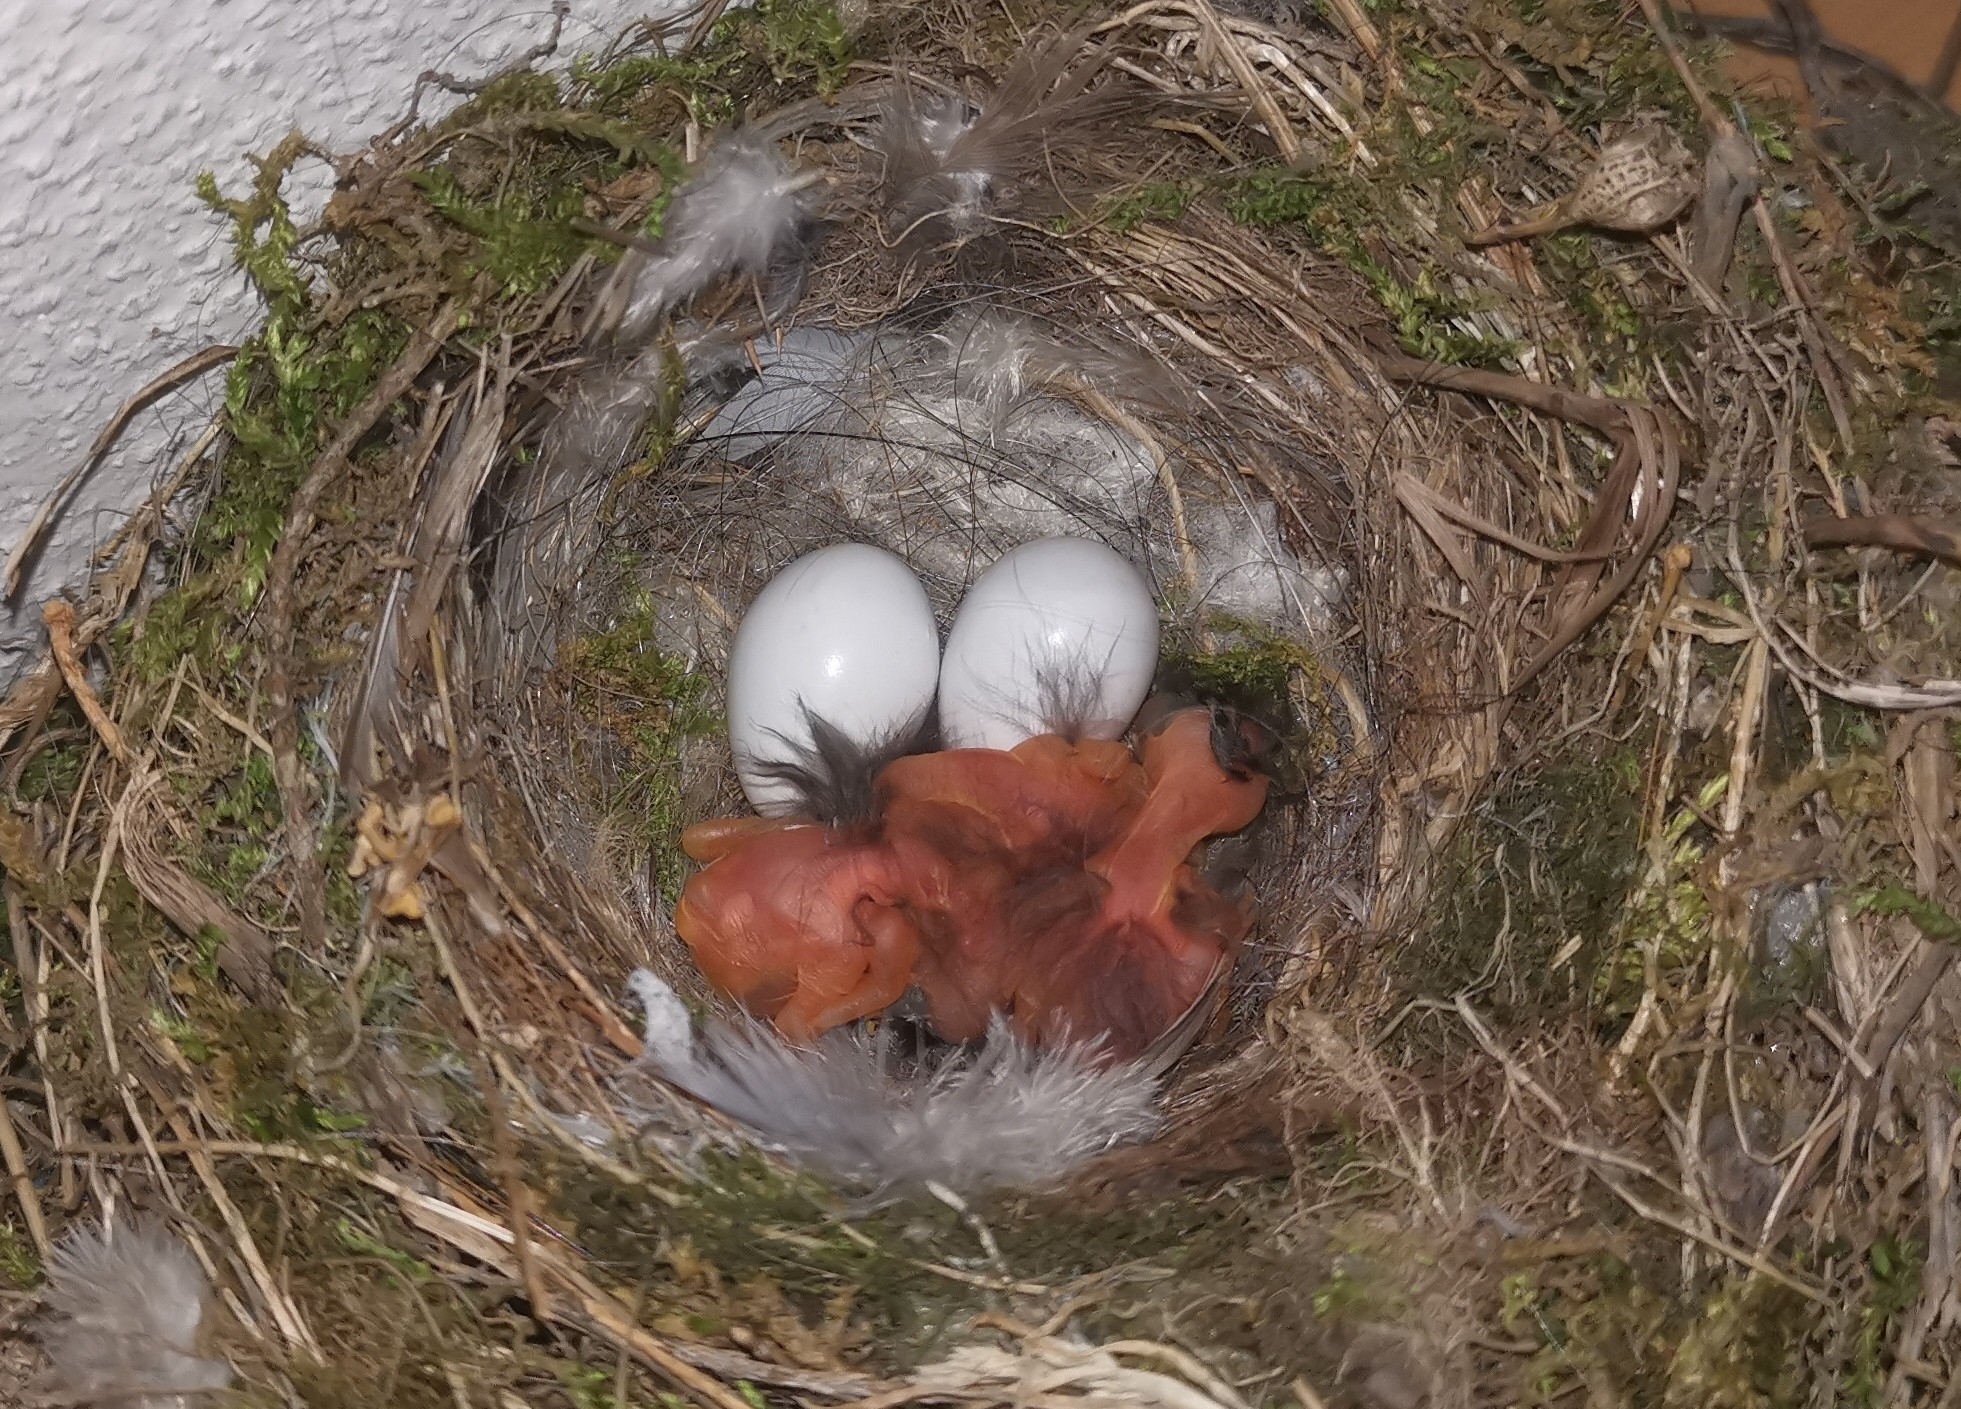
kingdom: Animalia
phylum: Chordata
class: Aves
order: Passeriformes
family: Muscicapidae
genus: Phoenicurus
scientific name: Phoenicurus ochruros
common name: Black redstart
